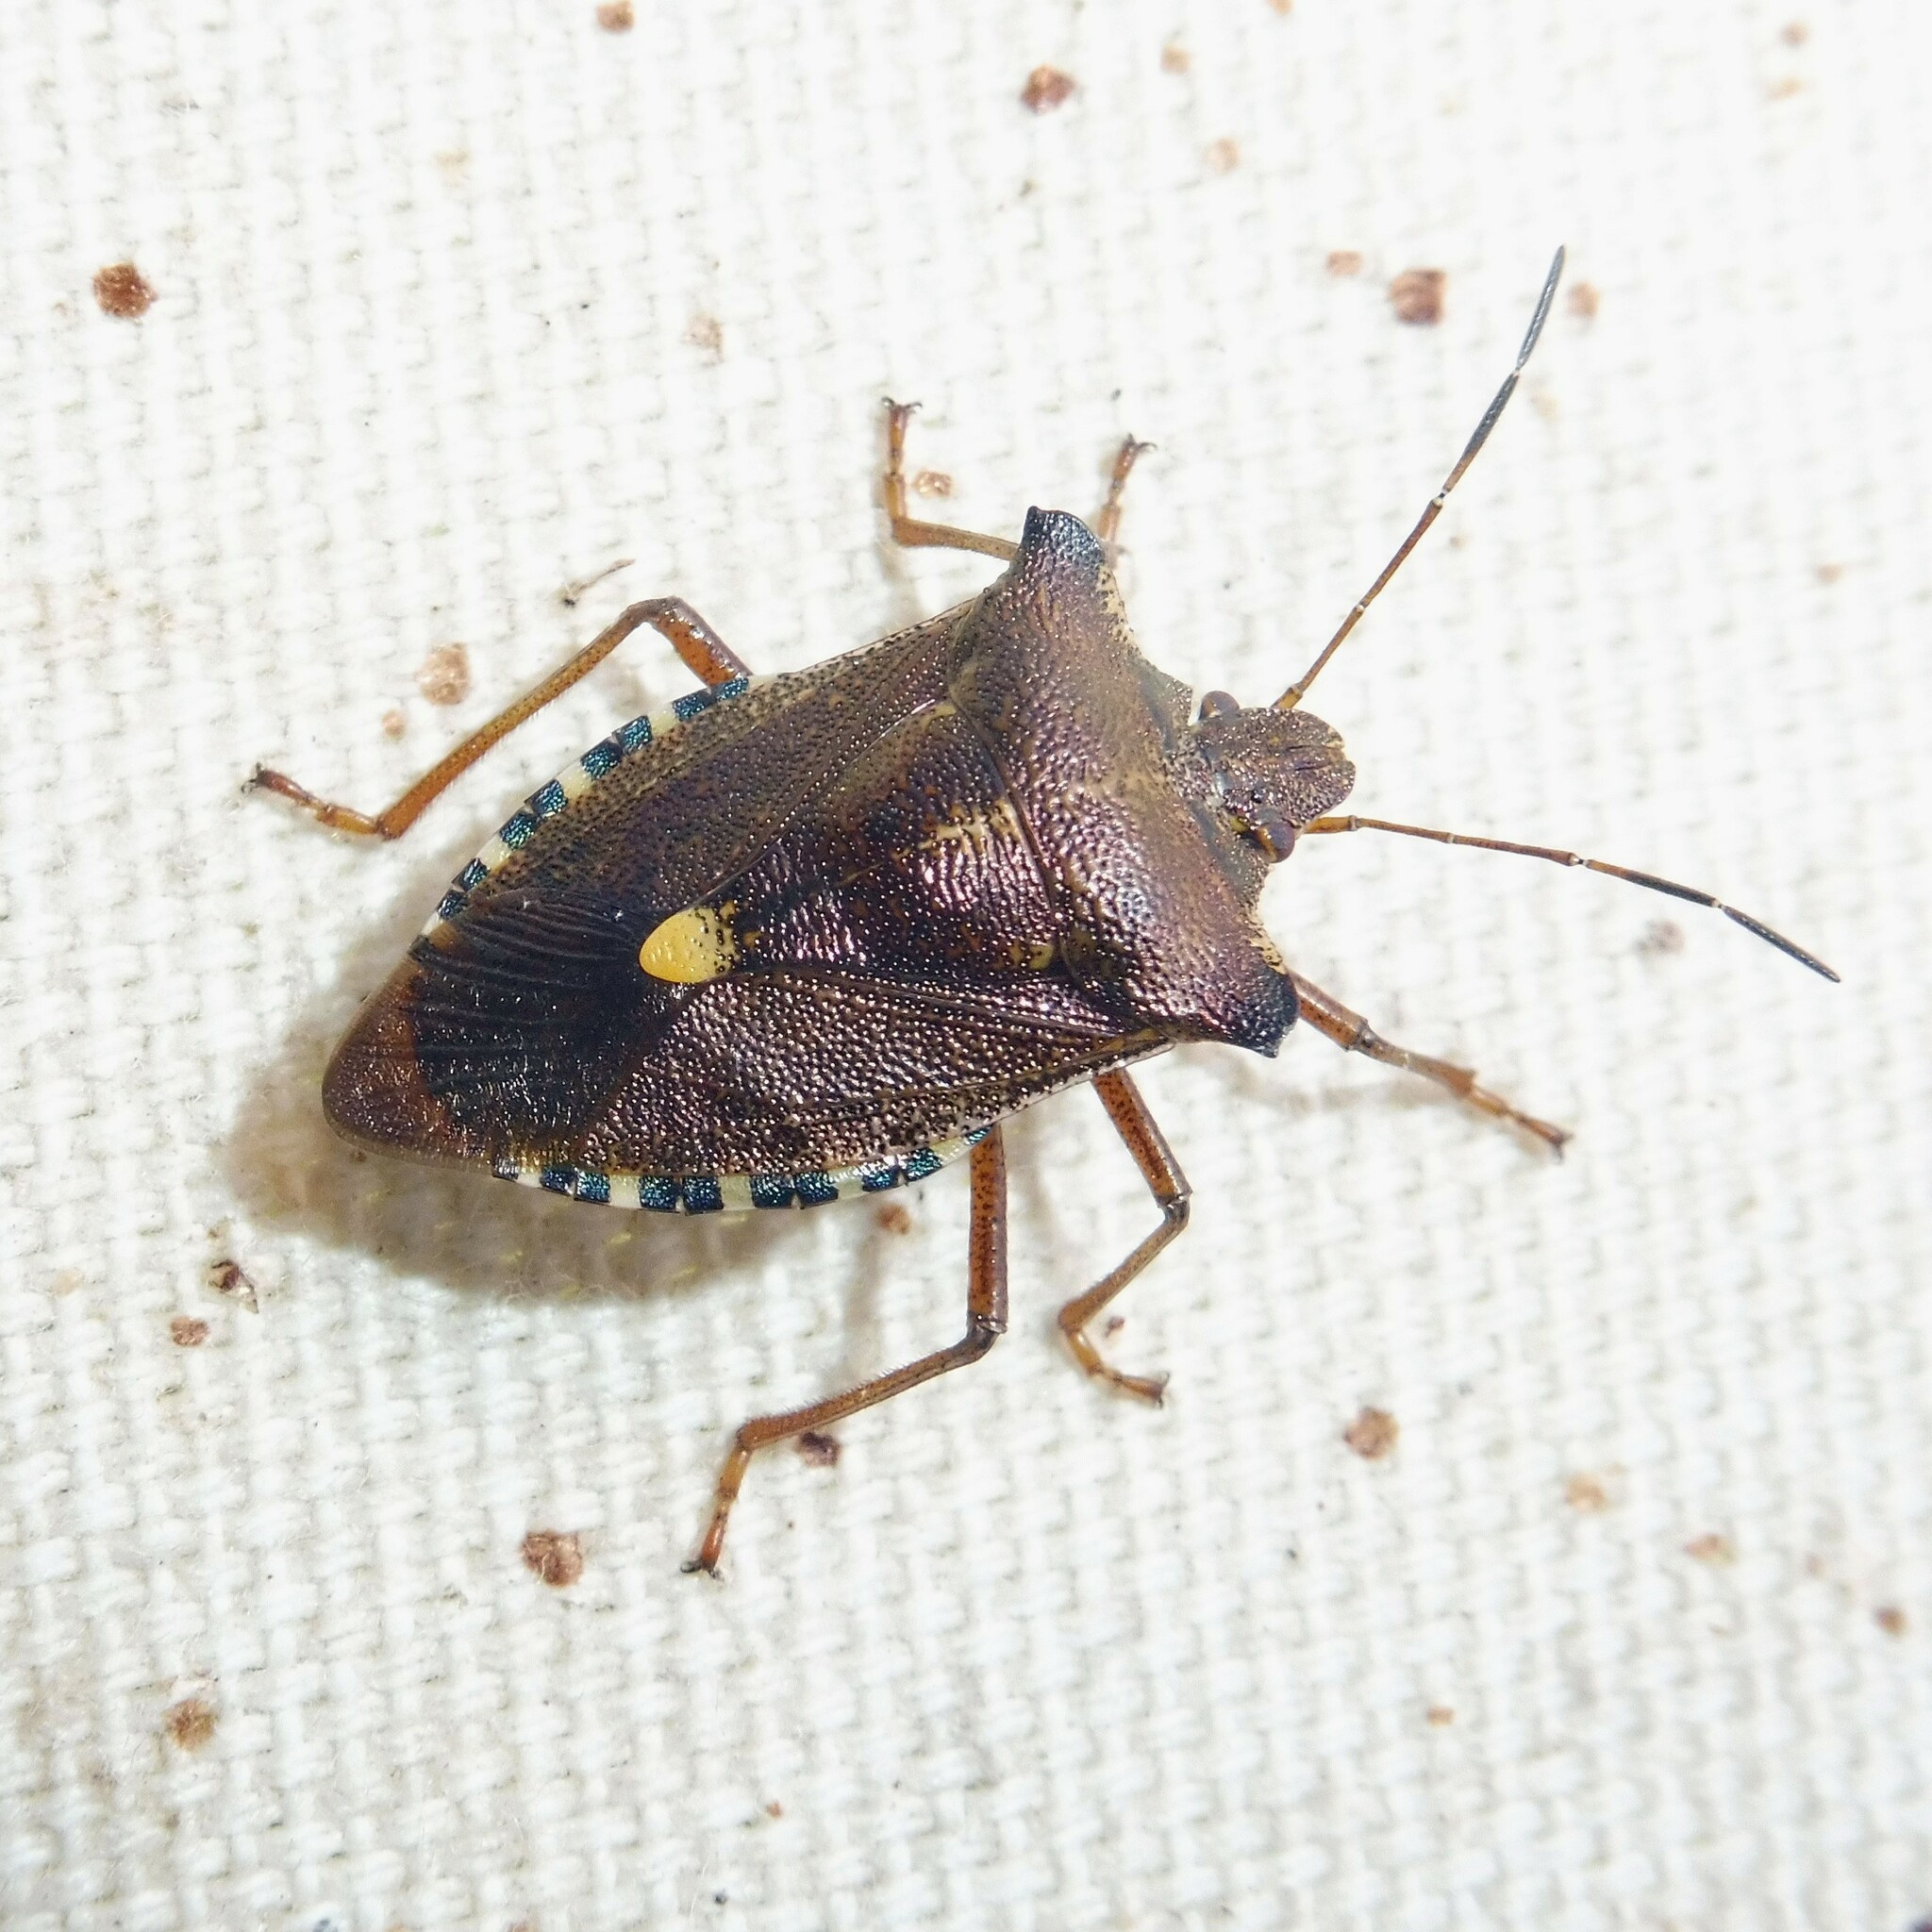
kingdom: Animalia
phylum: Arthropoda
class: Insecta
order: Hemiptera
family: Pentatomidae
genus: Pentatoma
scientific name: Pentatoma rufipes
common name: Forest bug
